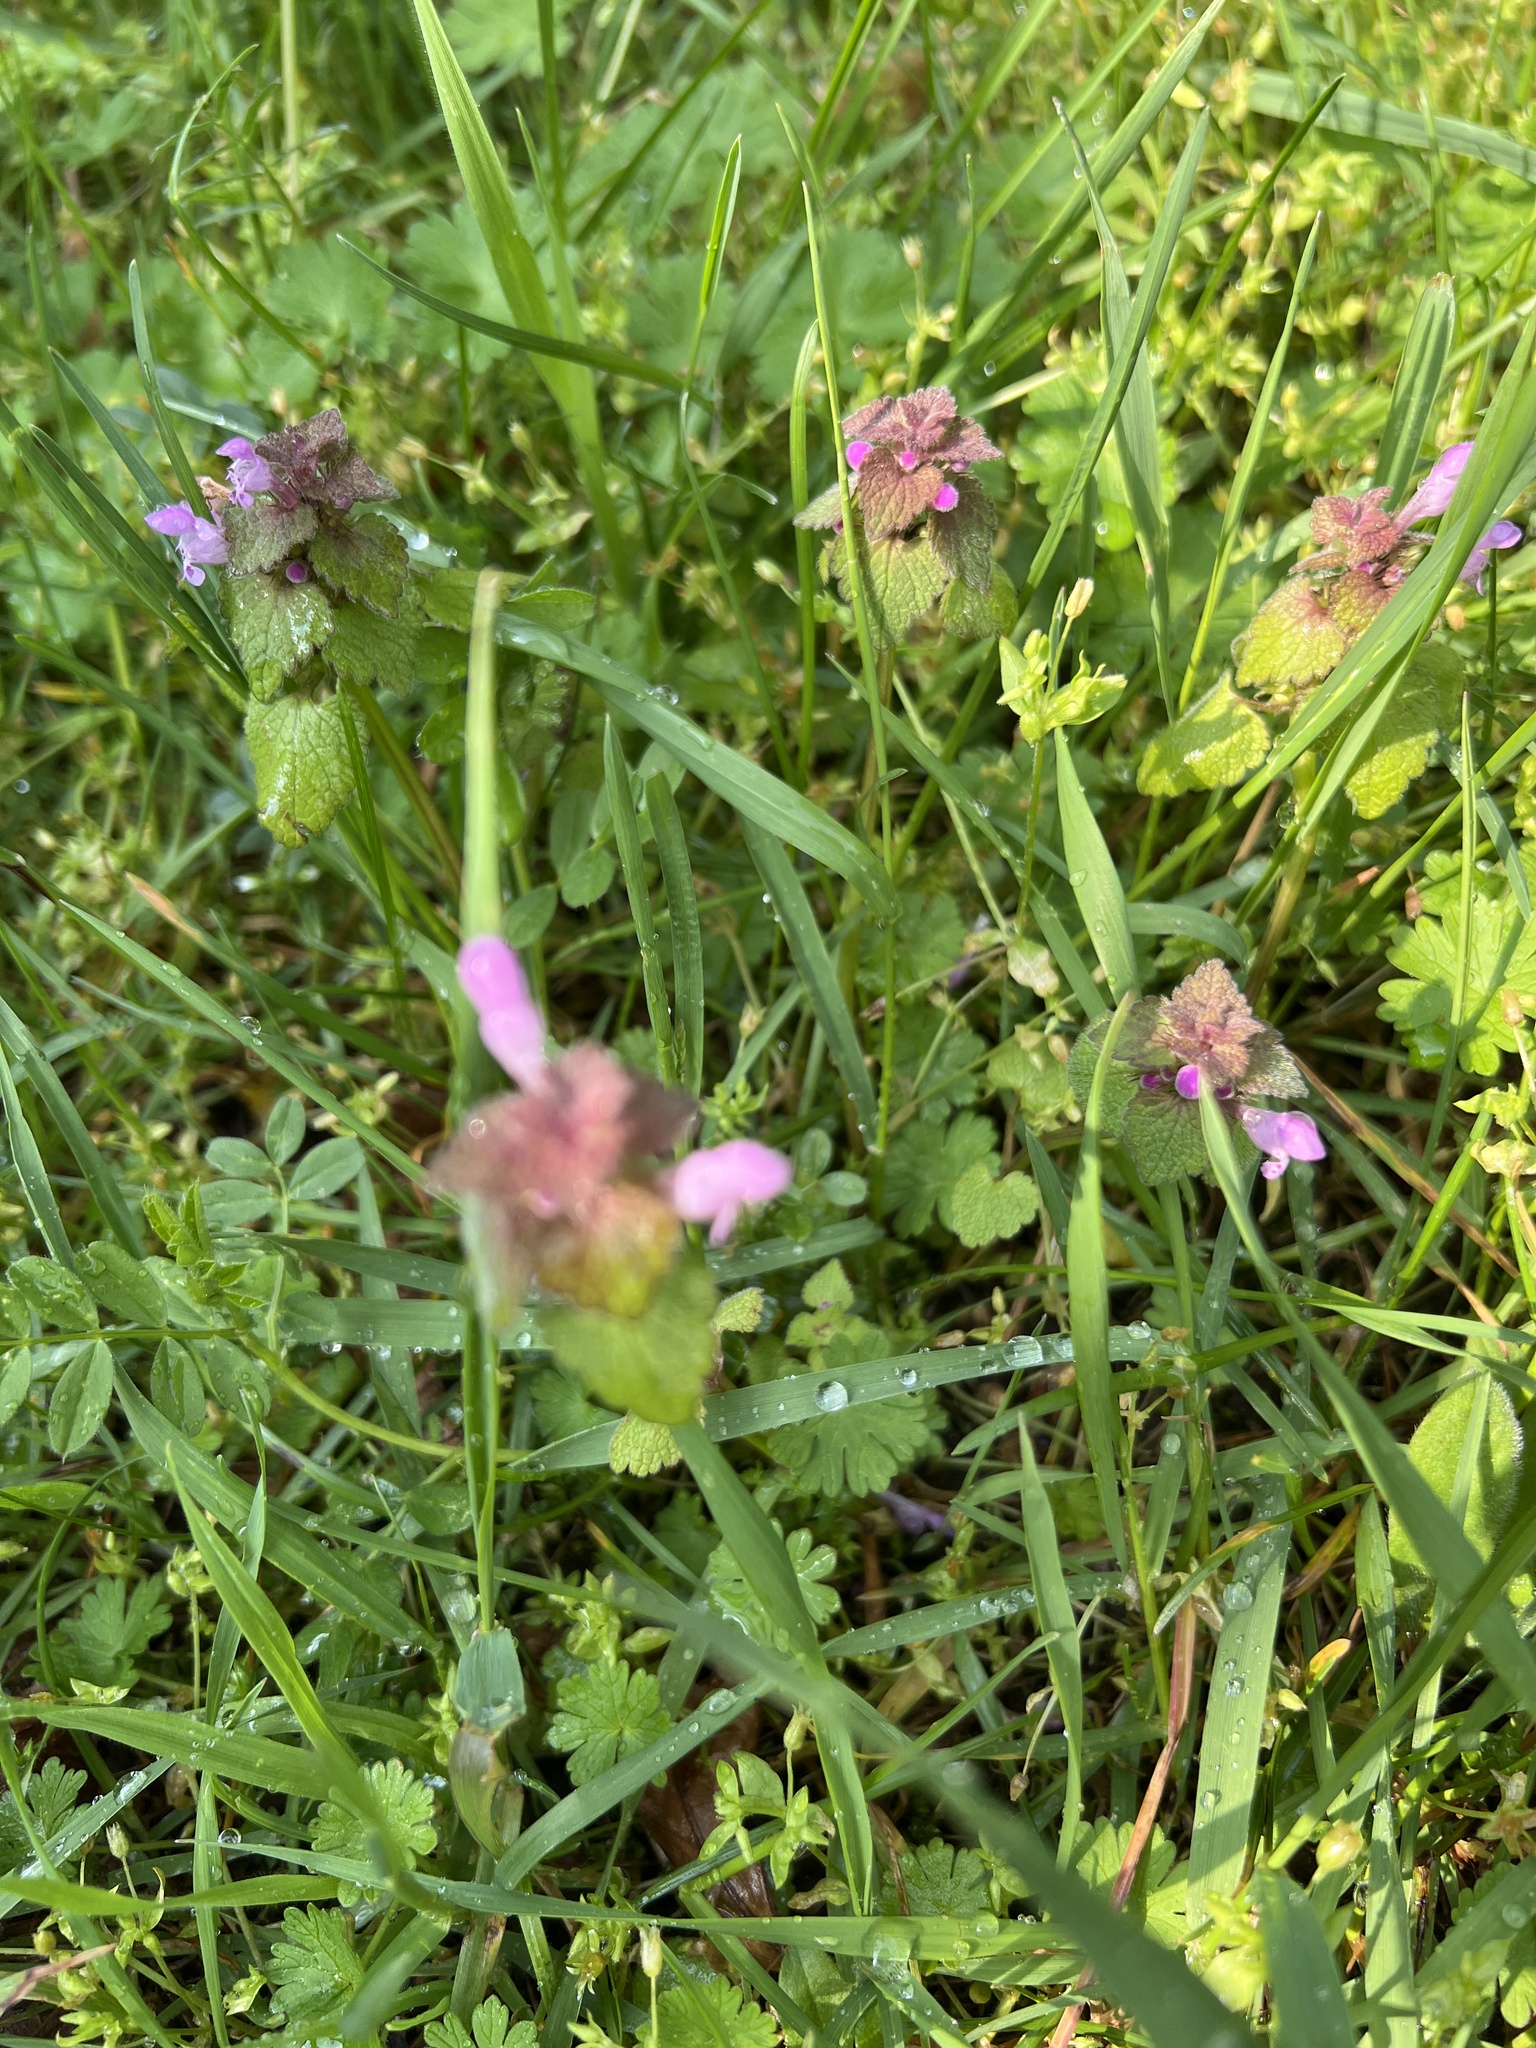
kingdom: Plantae
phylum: Tracheophyta
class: Magnoliopsida
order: Lamiales
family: Lamiaceae
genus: Lamium
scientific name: Lamium purpureum
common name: Red dead-nettle
